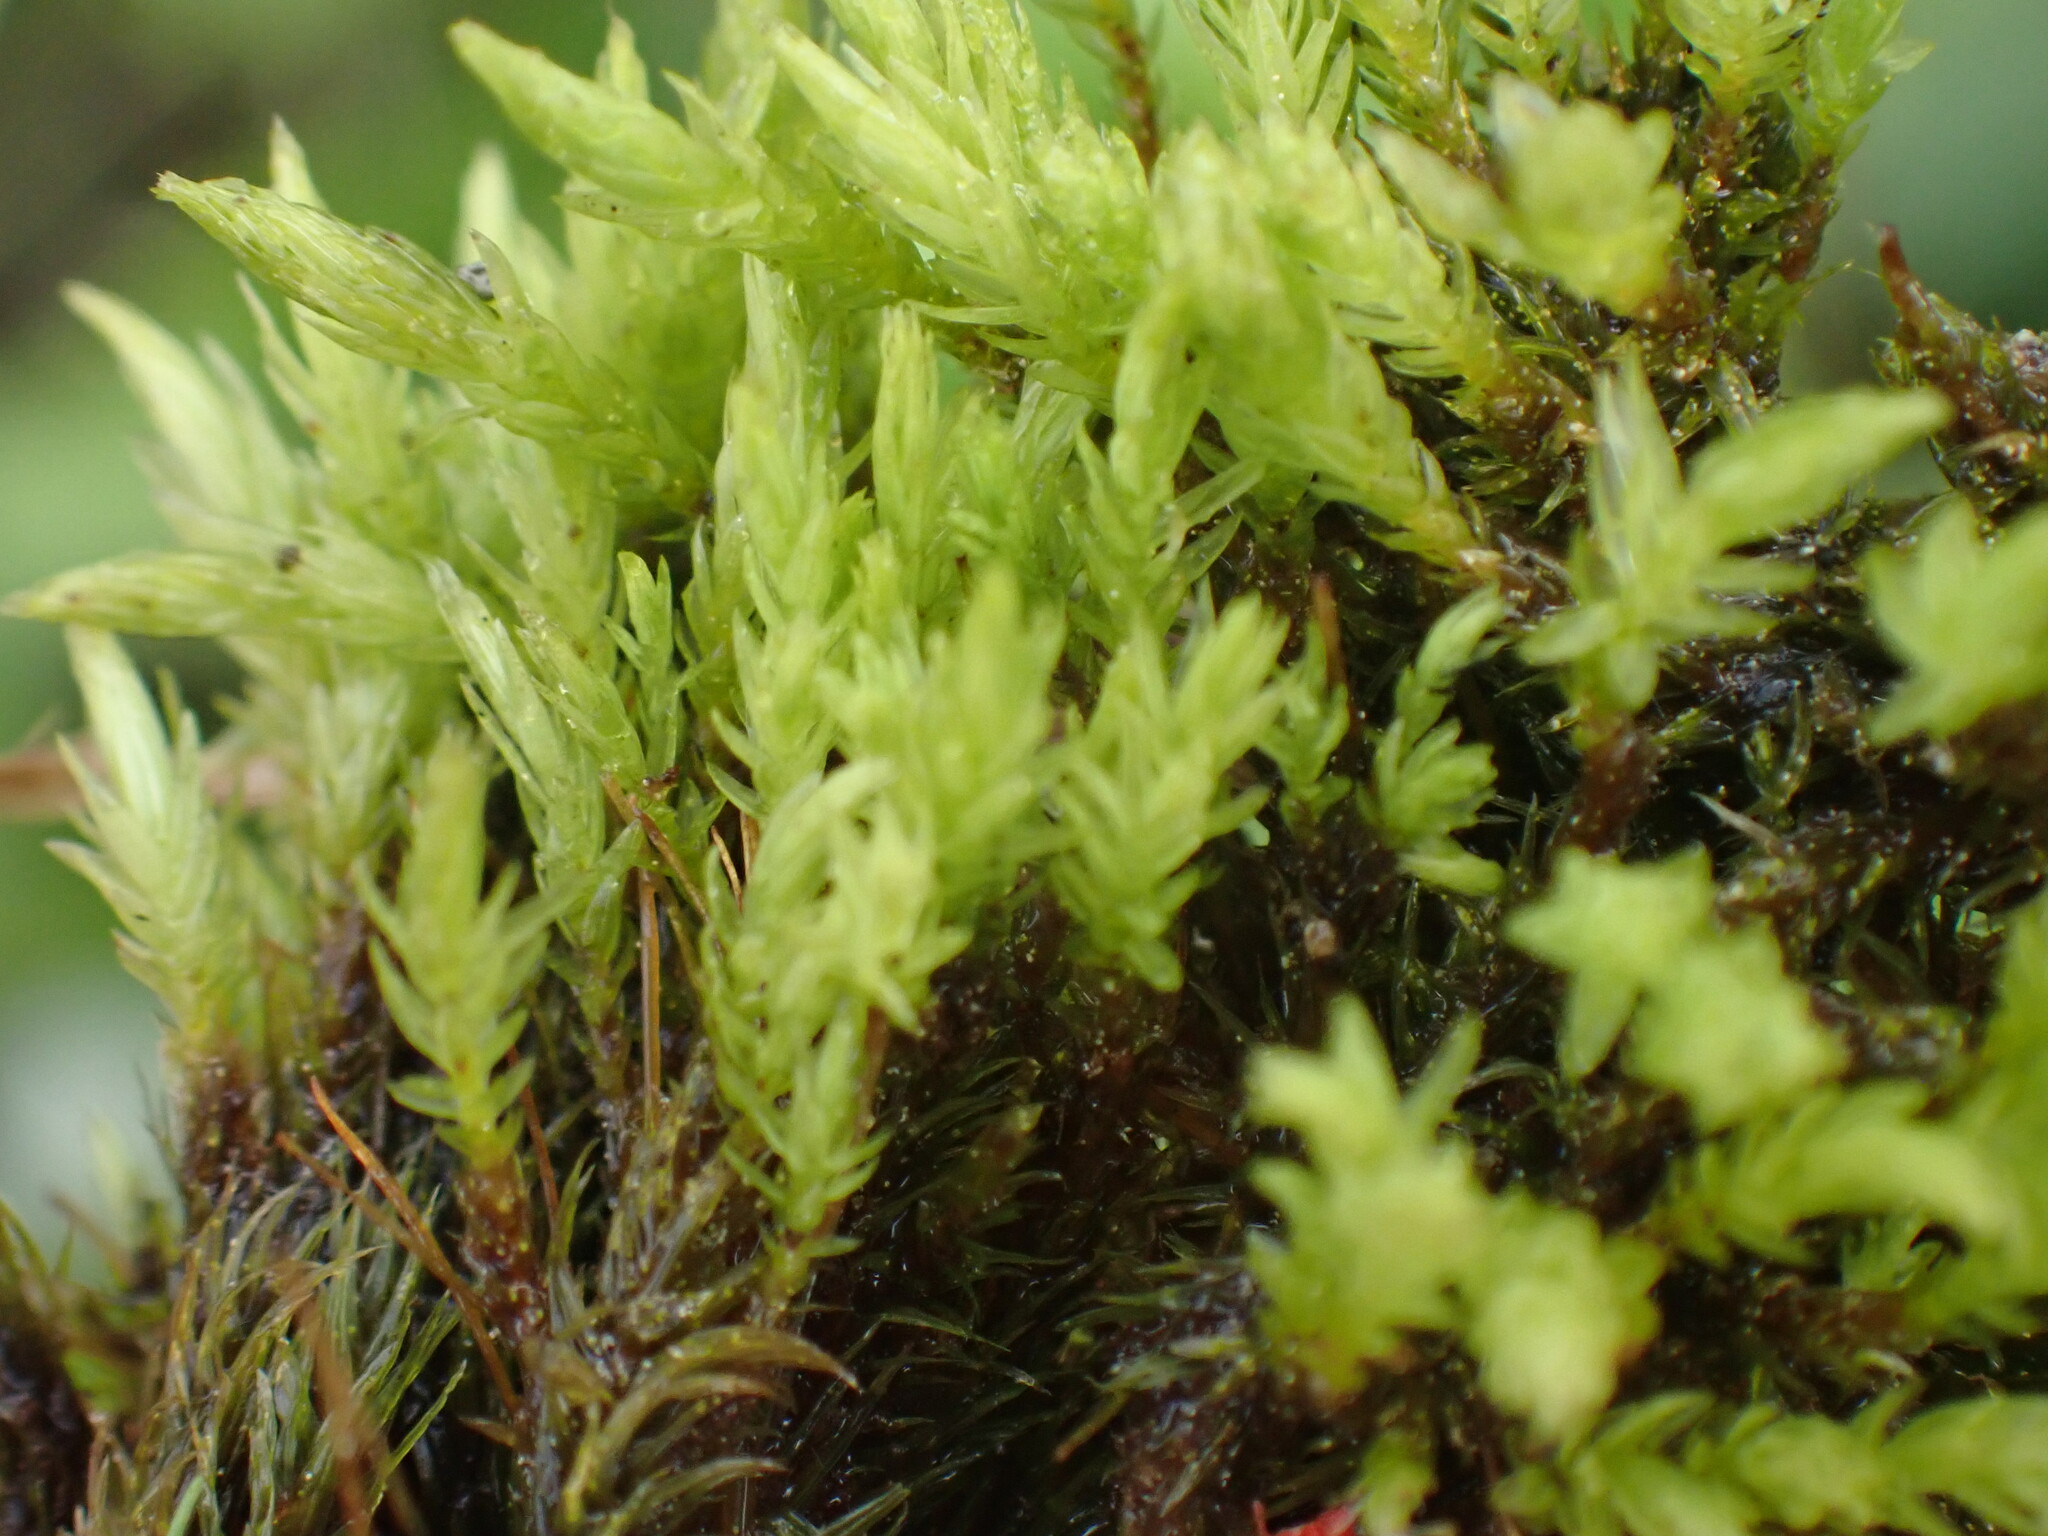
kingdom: Plantae
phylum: Bryophyta
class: Bryopsida
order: Aulacomniales
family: Aulacomniaceae
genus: Aulacomnium
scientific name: Aulacomnium palustre
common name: Bog groove-moss
